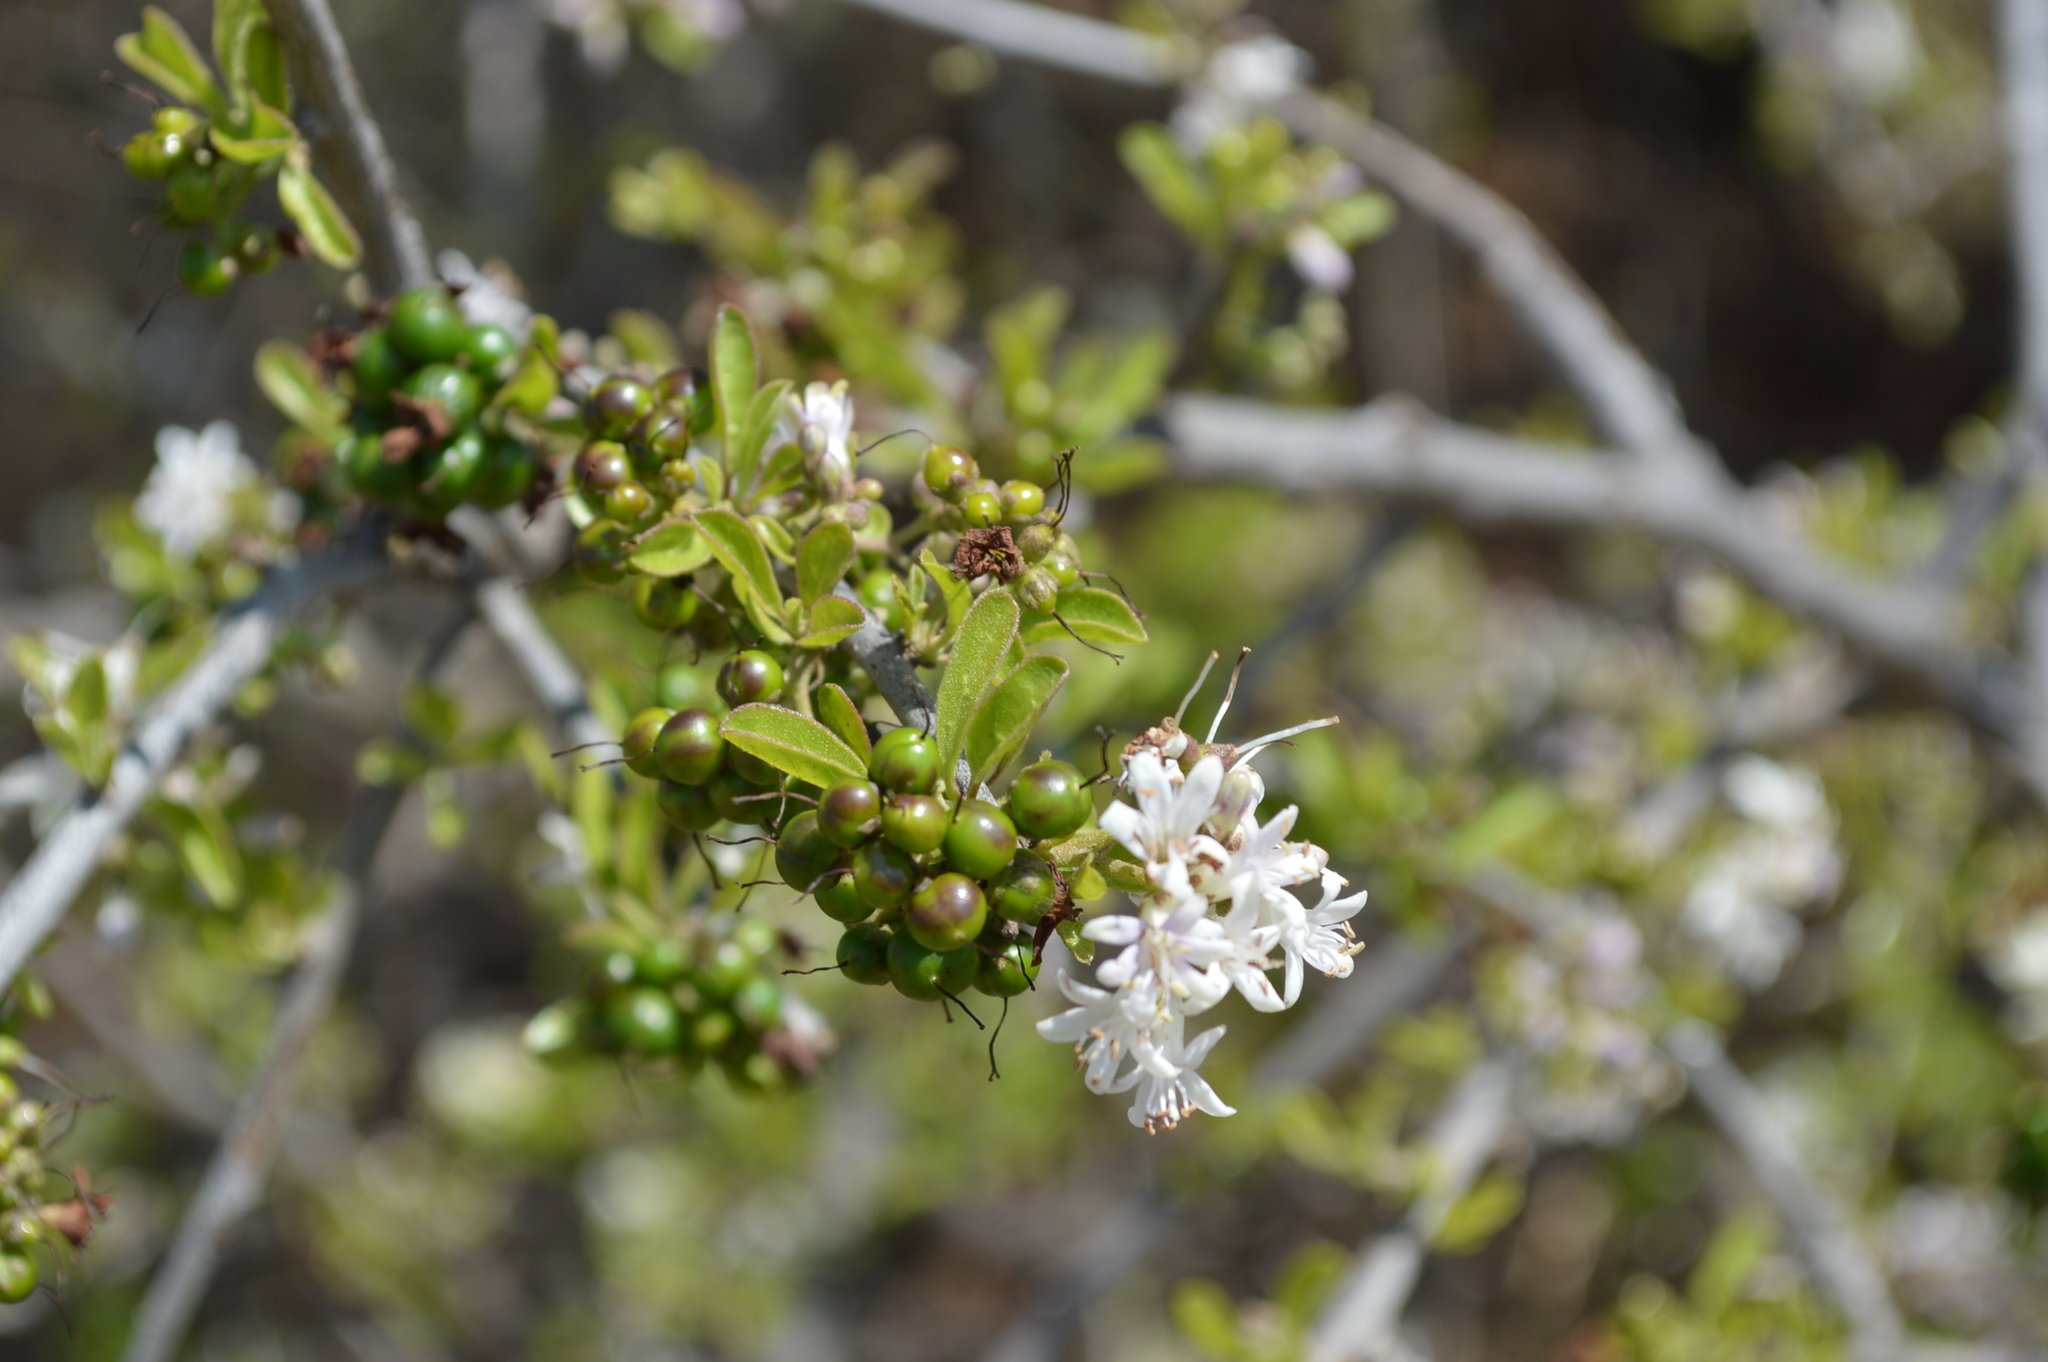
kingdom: Plantae
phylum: Tracheophyta
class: Magnoliopsida
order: Boraginales
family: Ehretiaceae
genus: Ehretia
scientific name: Ehretia rigida
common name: Cape lilac
